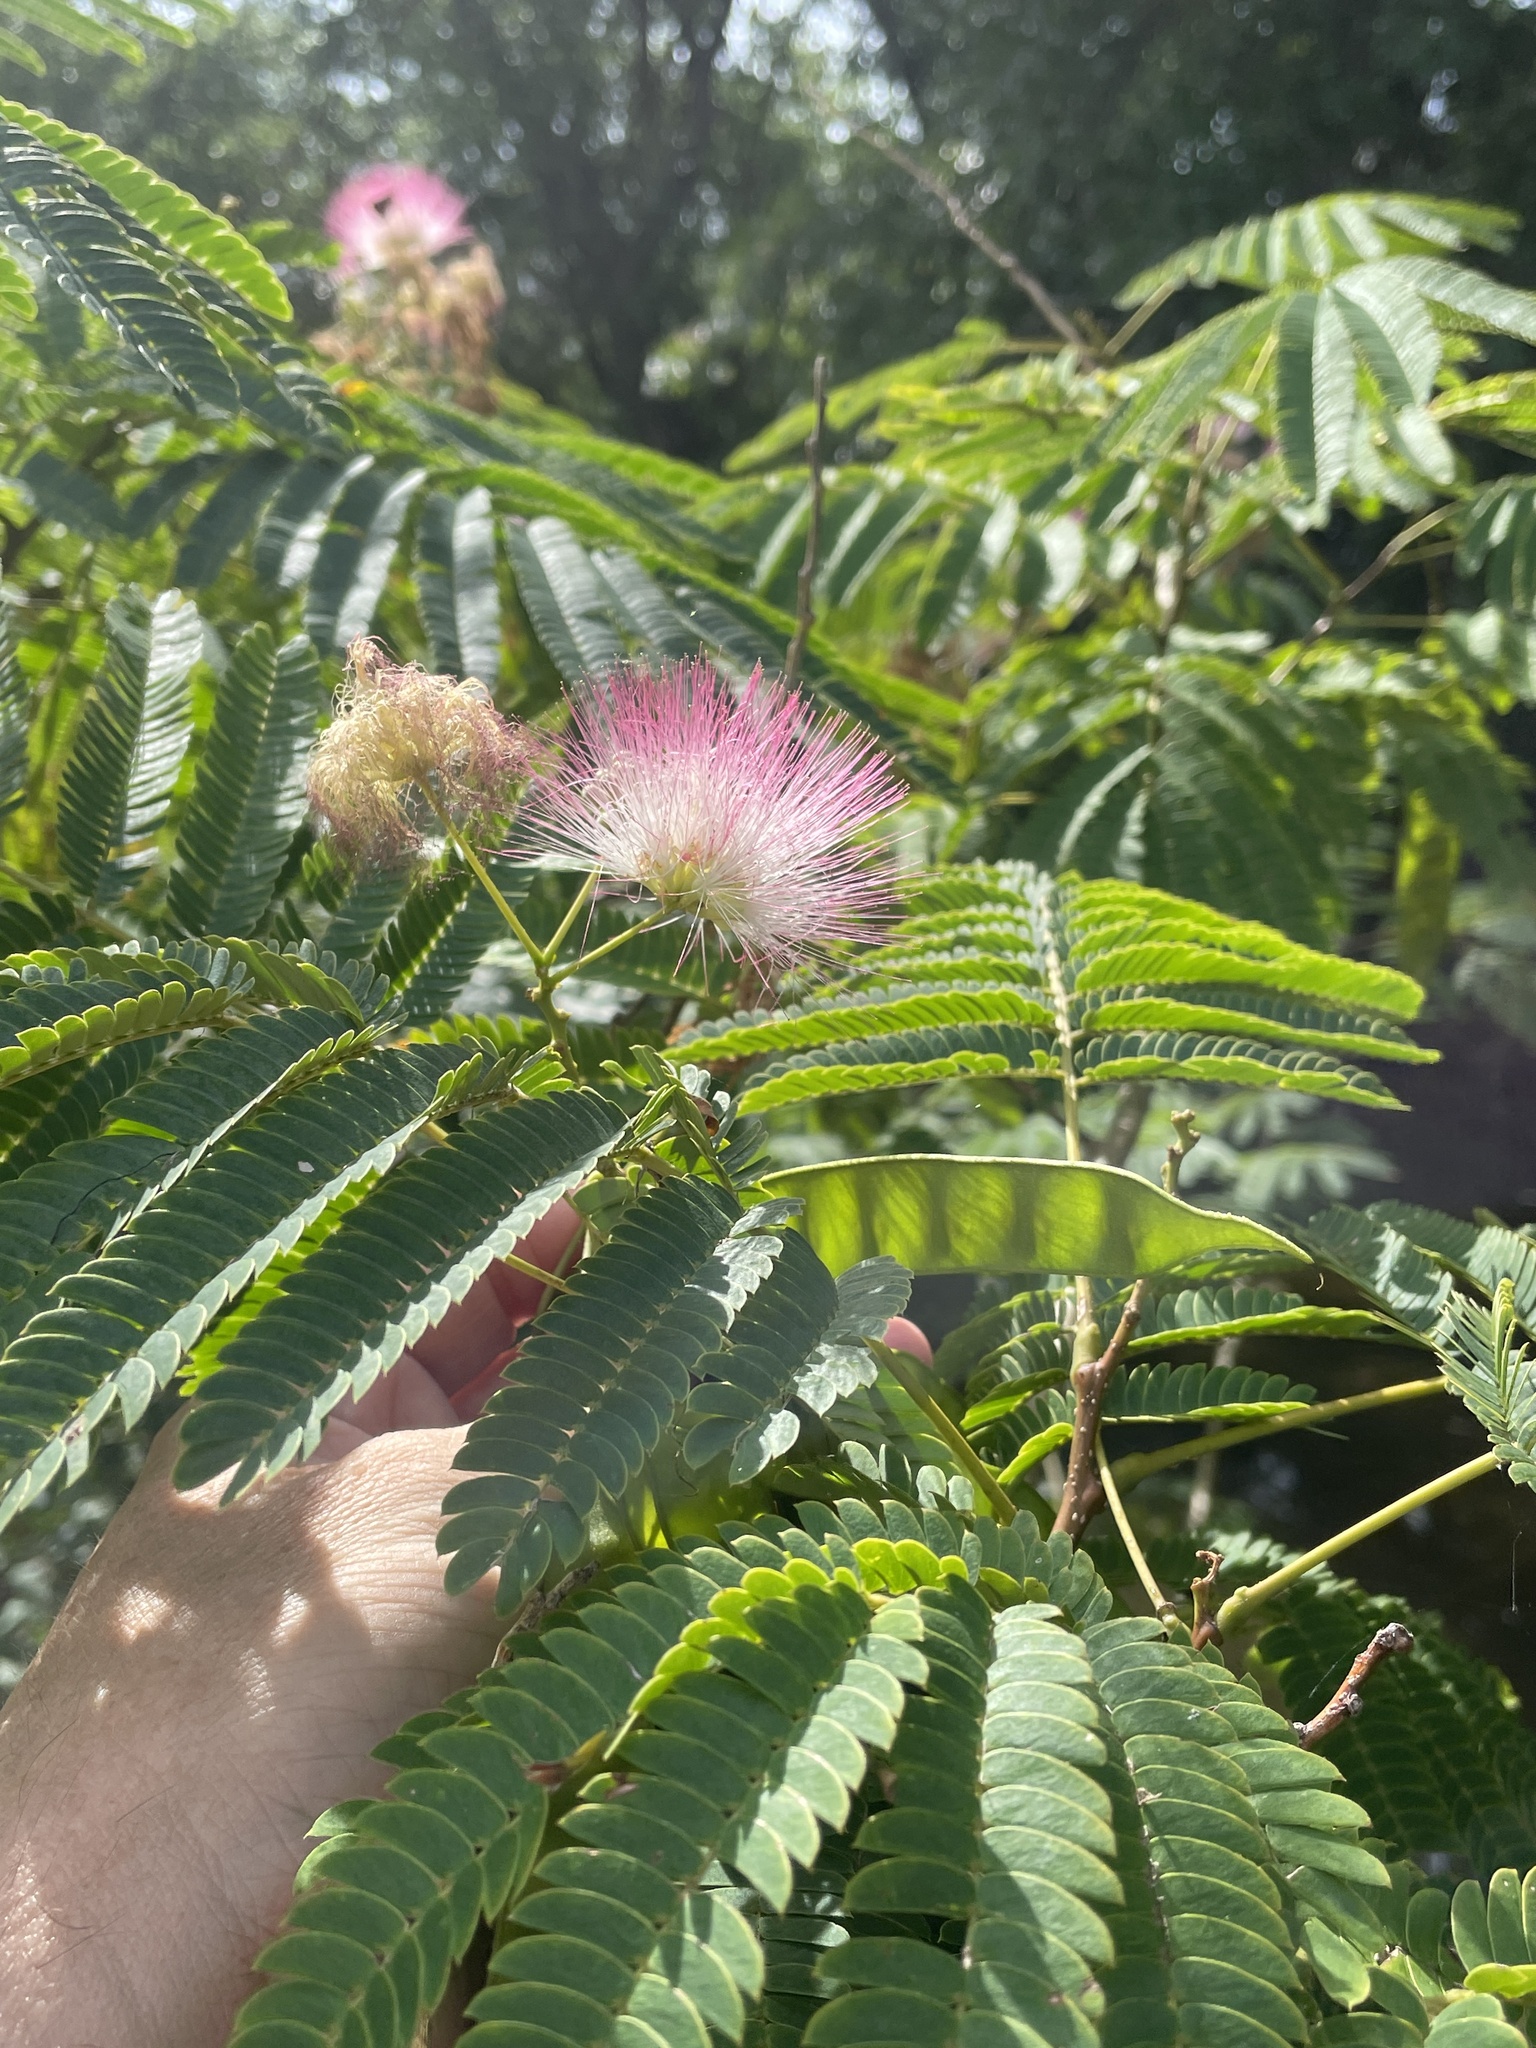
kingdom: Plantae
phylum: Tracheophyta
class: Magnoliopsida
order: Fabales
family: Fabaceae
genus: Albizia
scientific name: Albizia julibrissin
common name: Silktree
